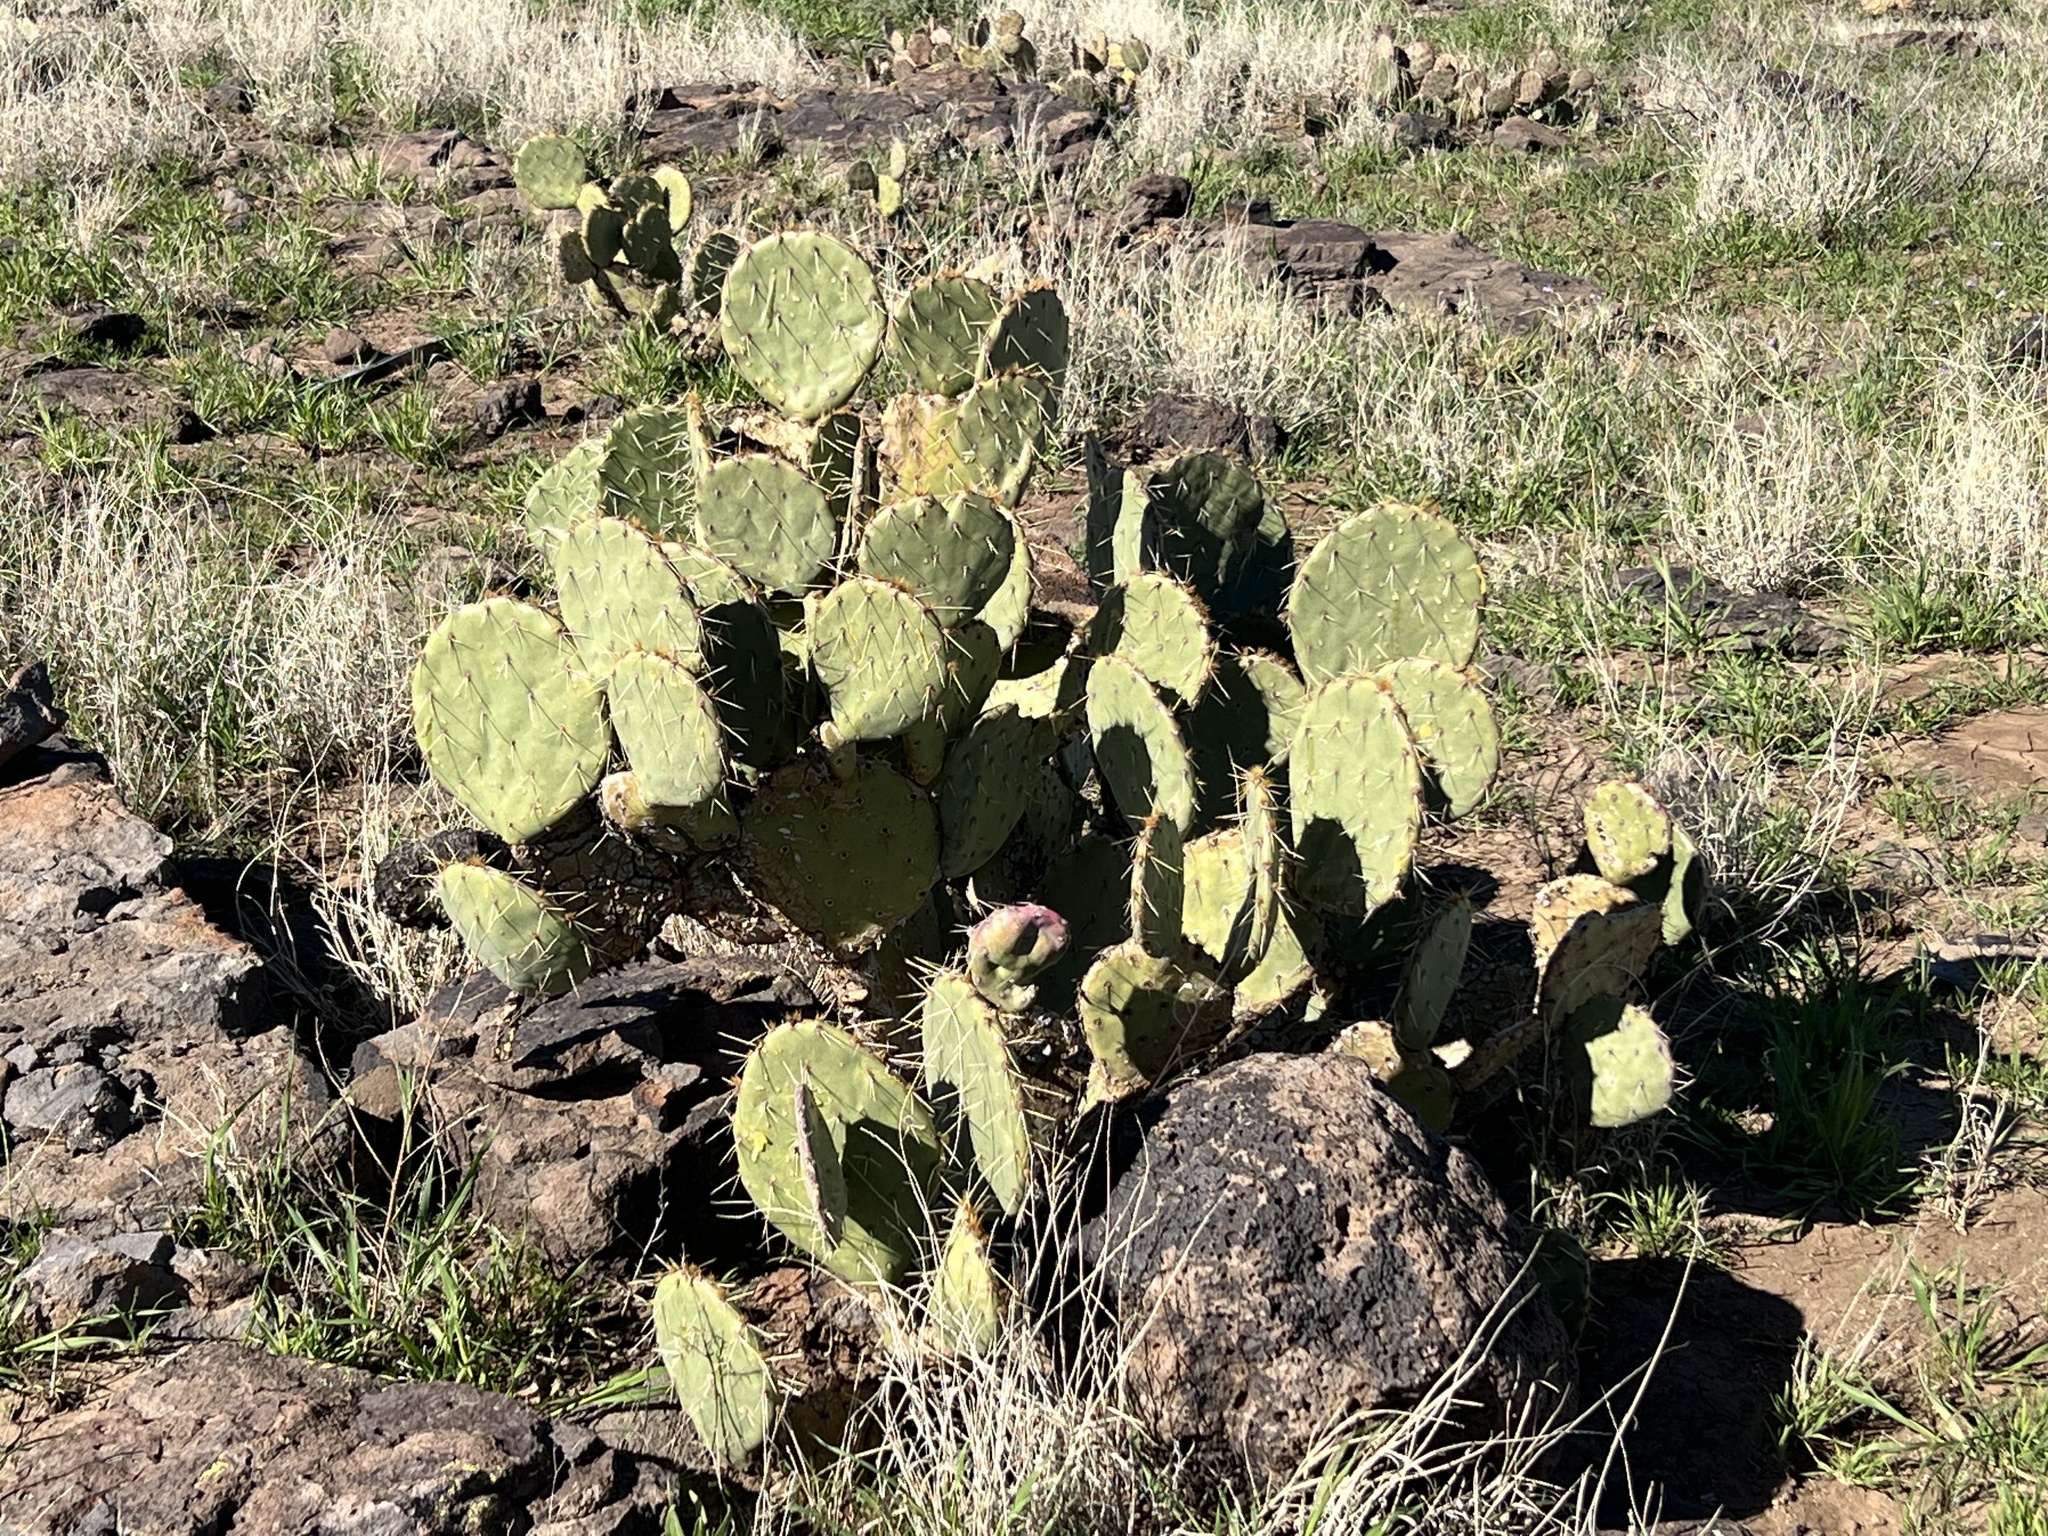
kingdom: Plantae
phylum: Tracheophyta
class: Magnoliopsida
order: Caryophyllales
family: Cactaceae
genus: Opuntia
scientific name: Opuntia engelmannii
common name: Cactus-apple
